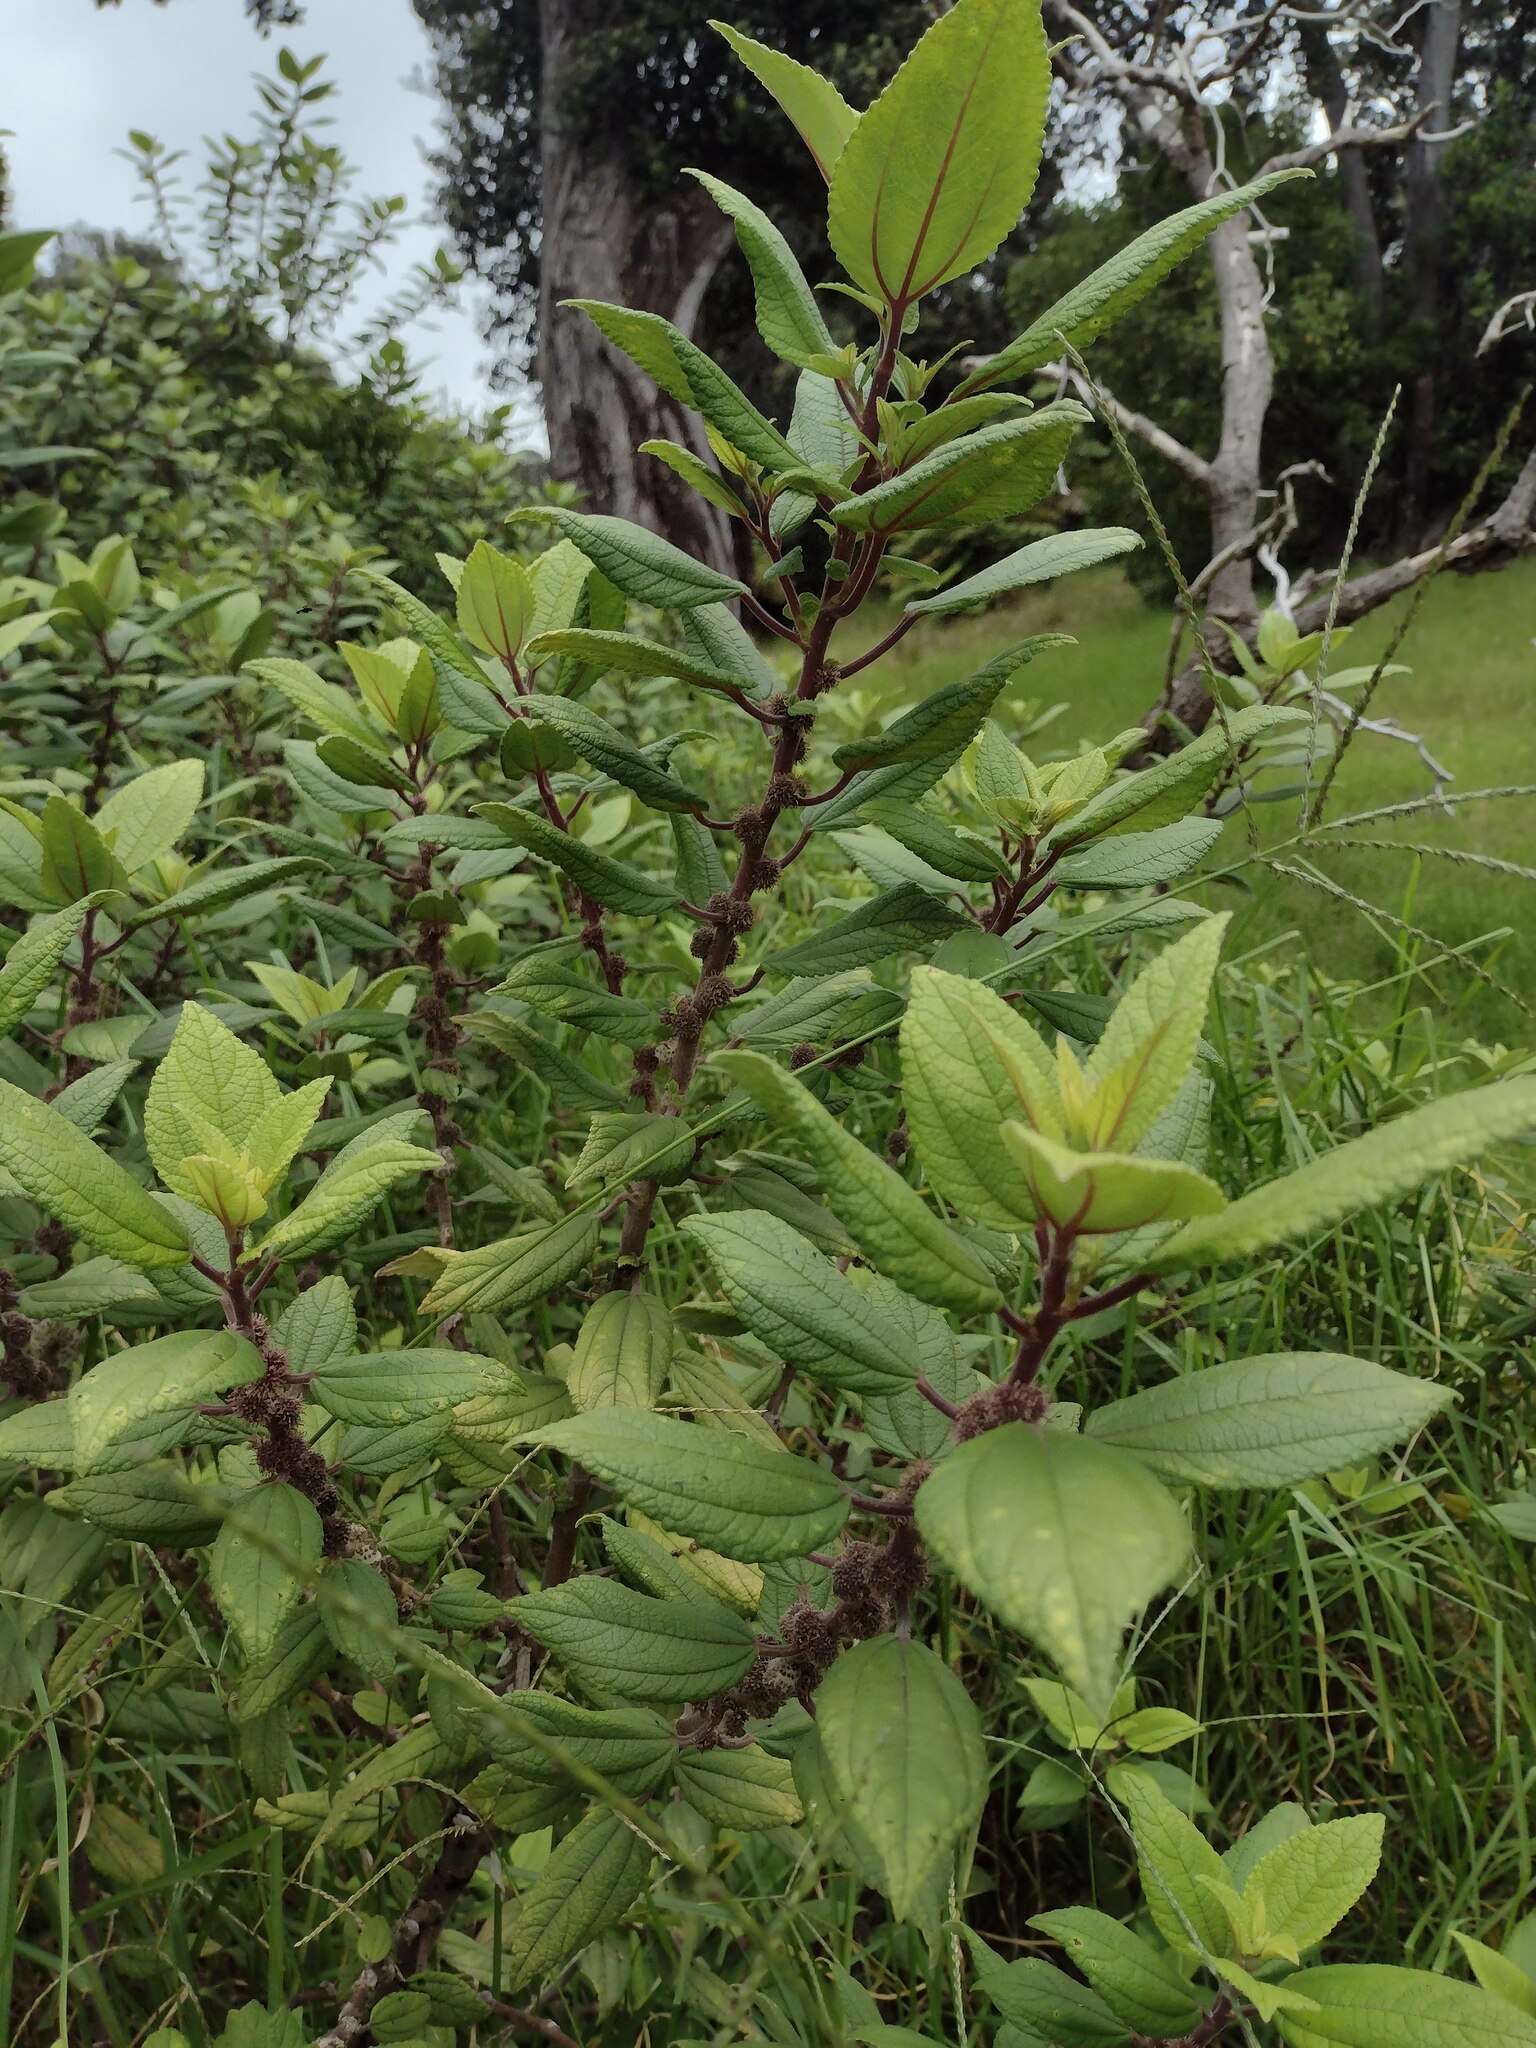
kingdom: Plantae
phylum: Tracheophyta
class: Magnoliopsida
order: Rosales
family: Urticaceae
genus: Pipturus
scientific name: Pipturus albidus
